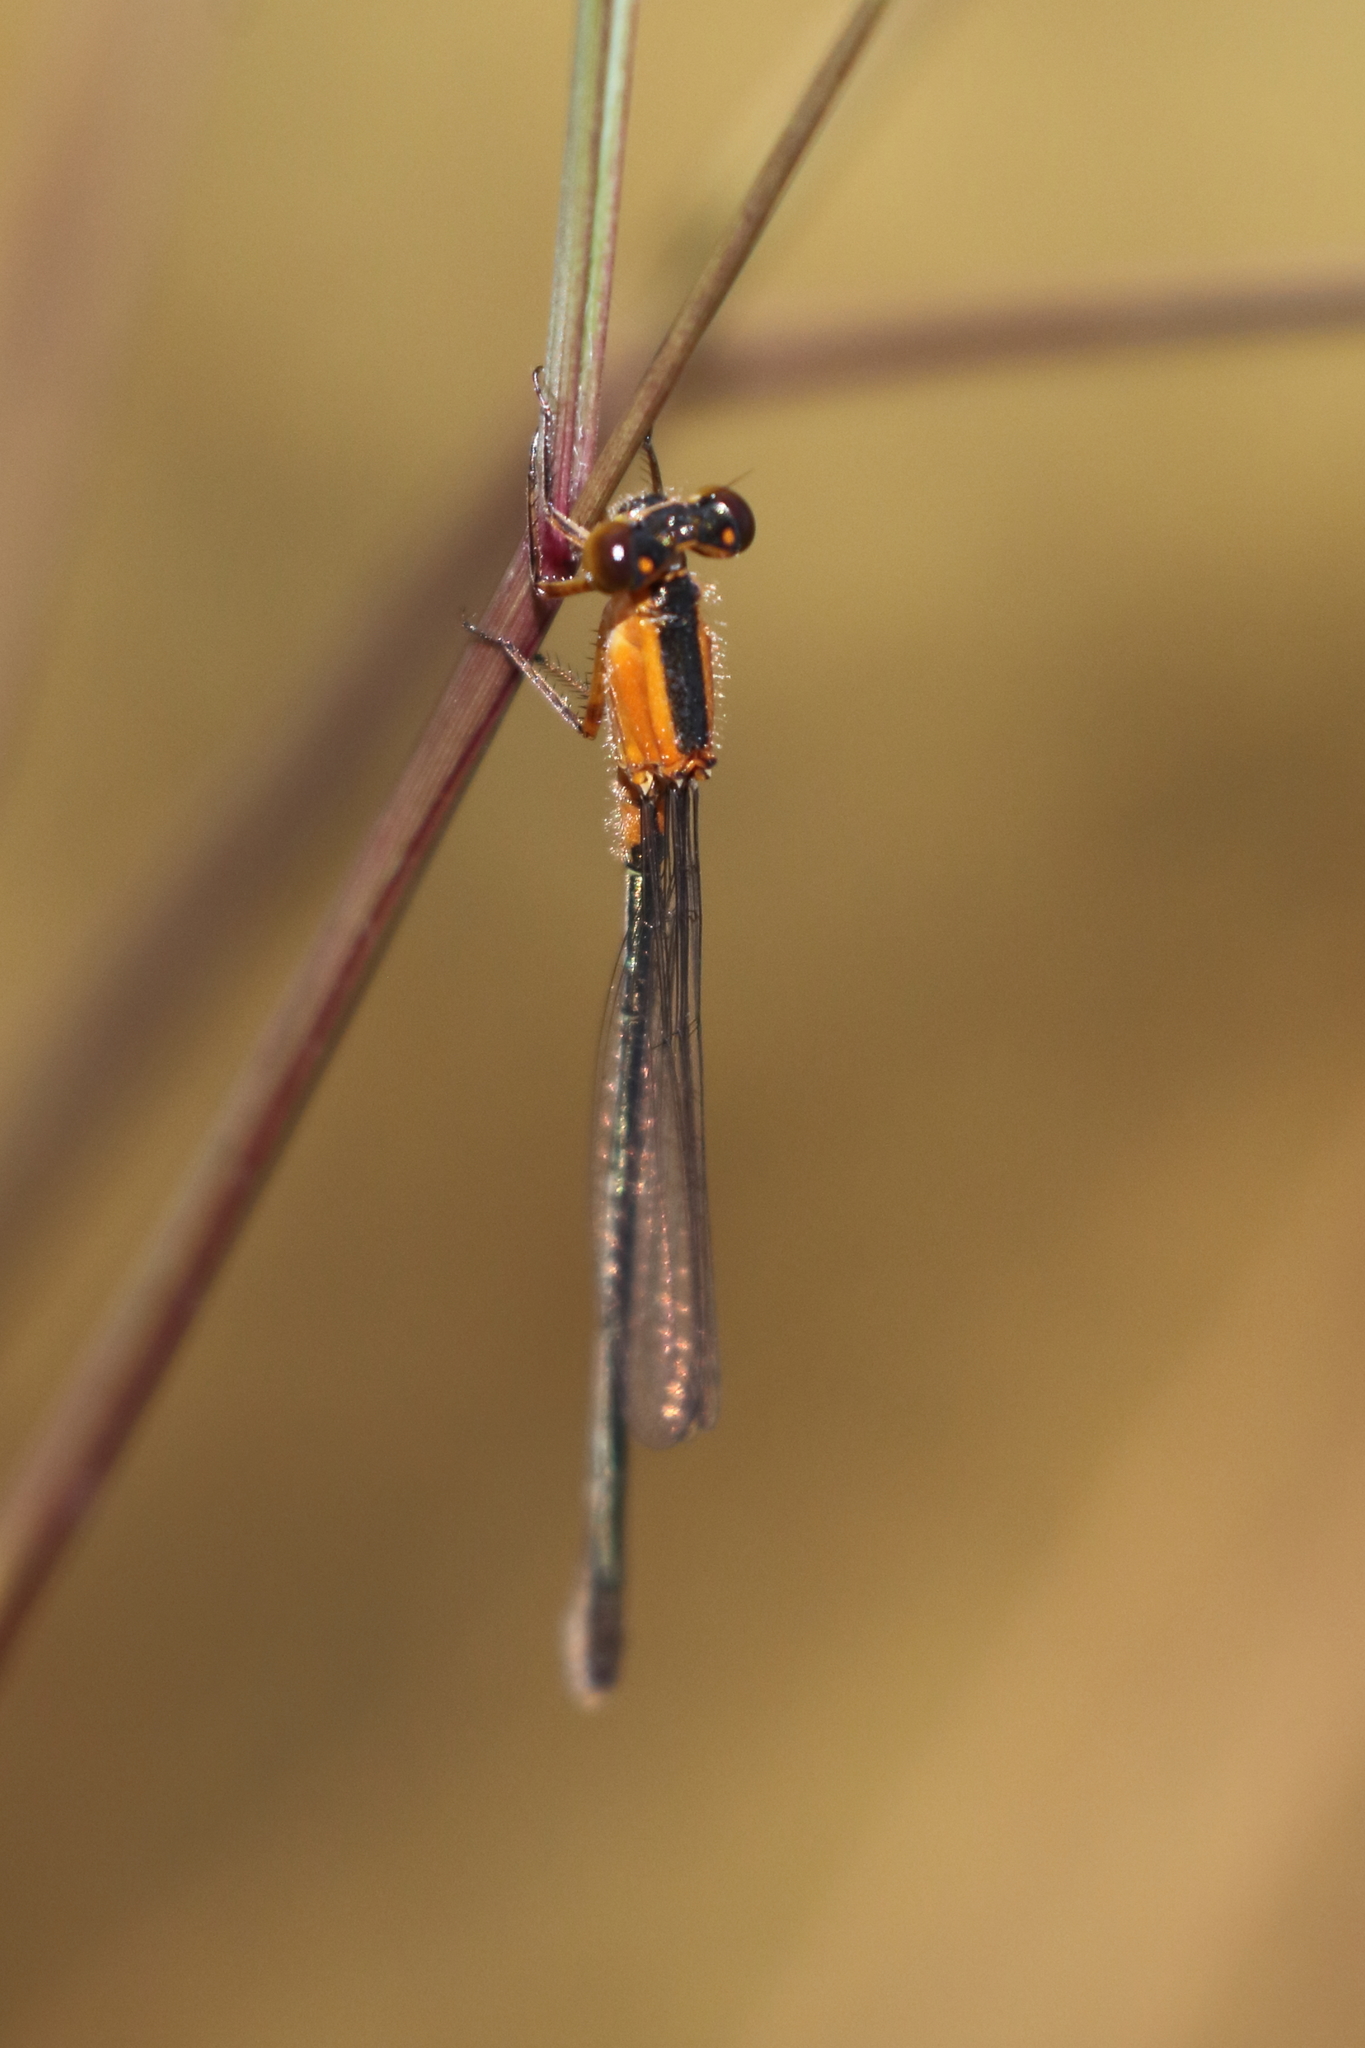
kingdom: Animalia
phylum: Arthropoda
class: Insecta
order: Odonata
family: Coenagrionidae
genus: Ischnura
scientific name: Ischnura ramburii
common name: Rambur's forktail
